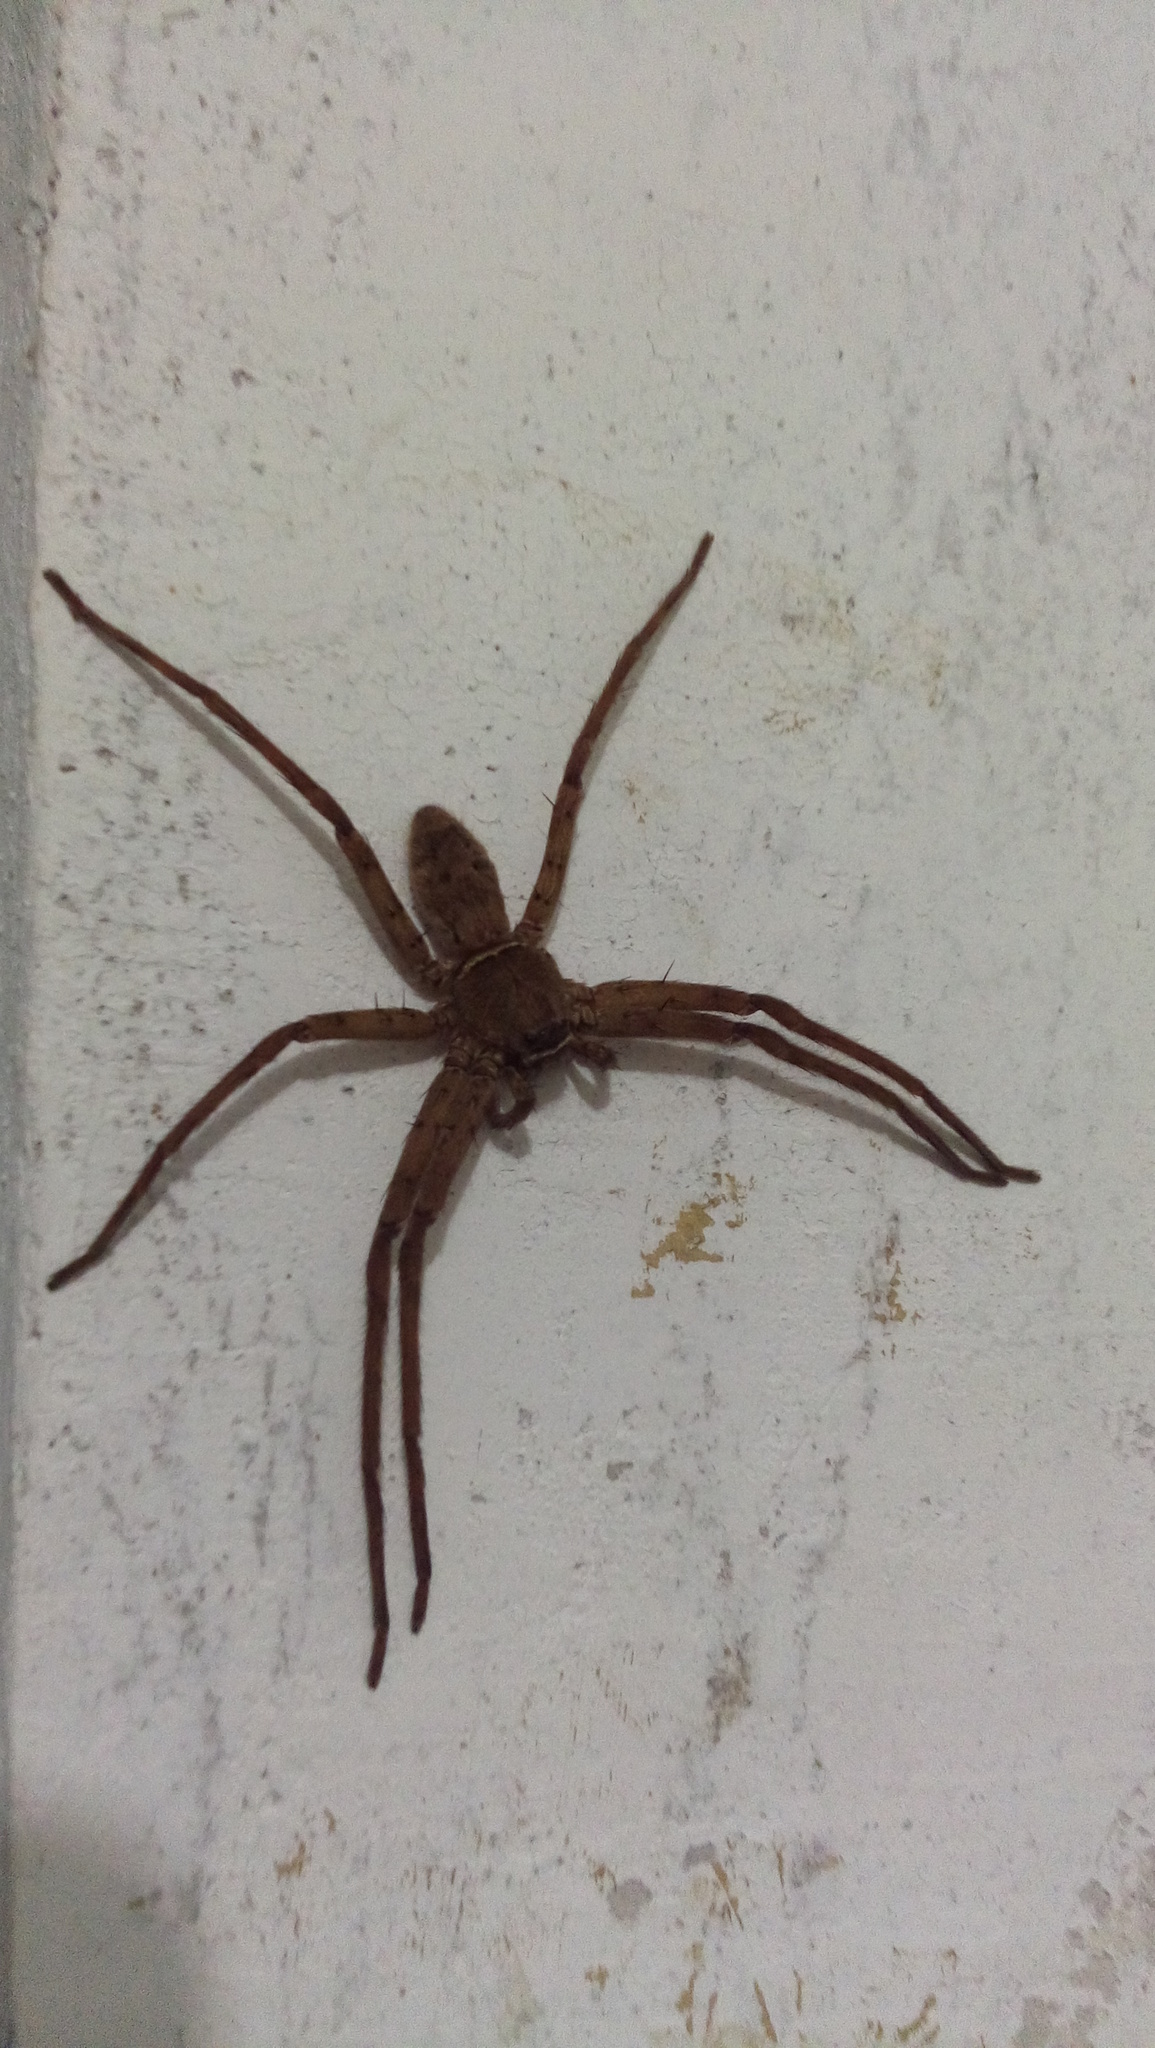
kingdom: Animalia
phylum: Arthropoda
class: Arachnida
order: Araneae
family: Sparassidae
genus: Heteropoda
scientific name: Heteropoda venatoria
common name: Huntsman spider
